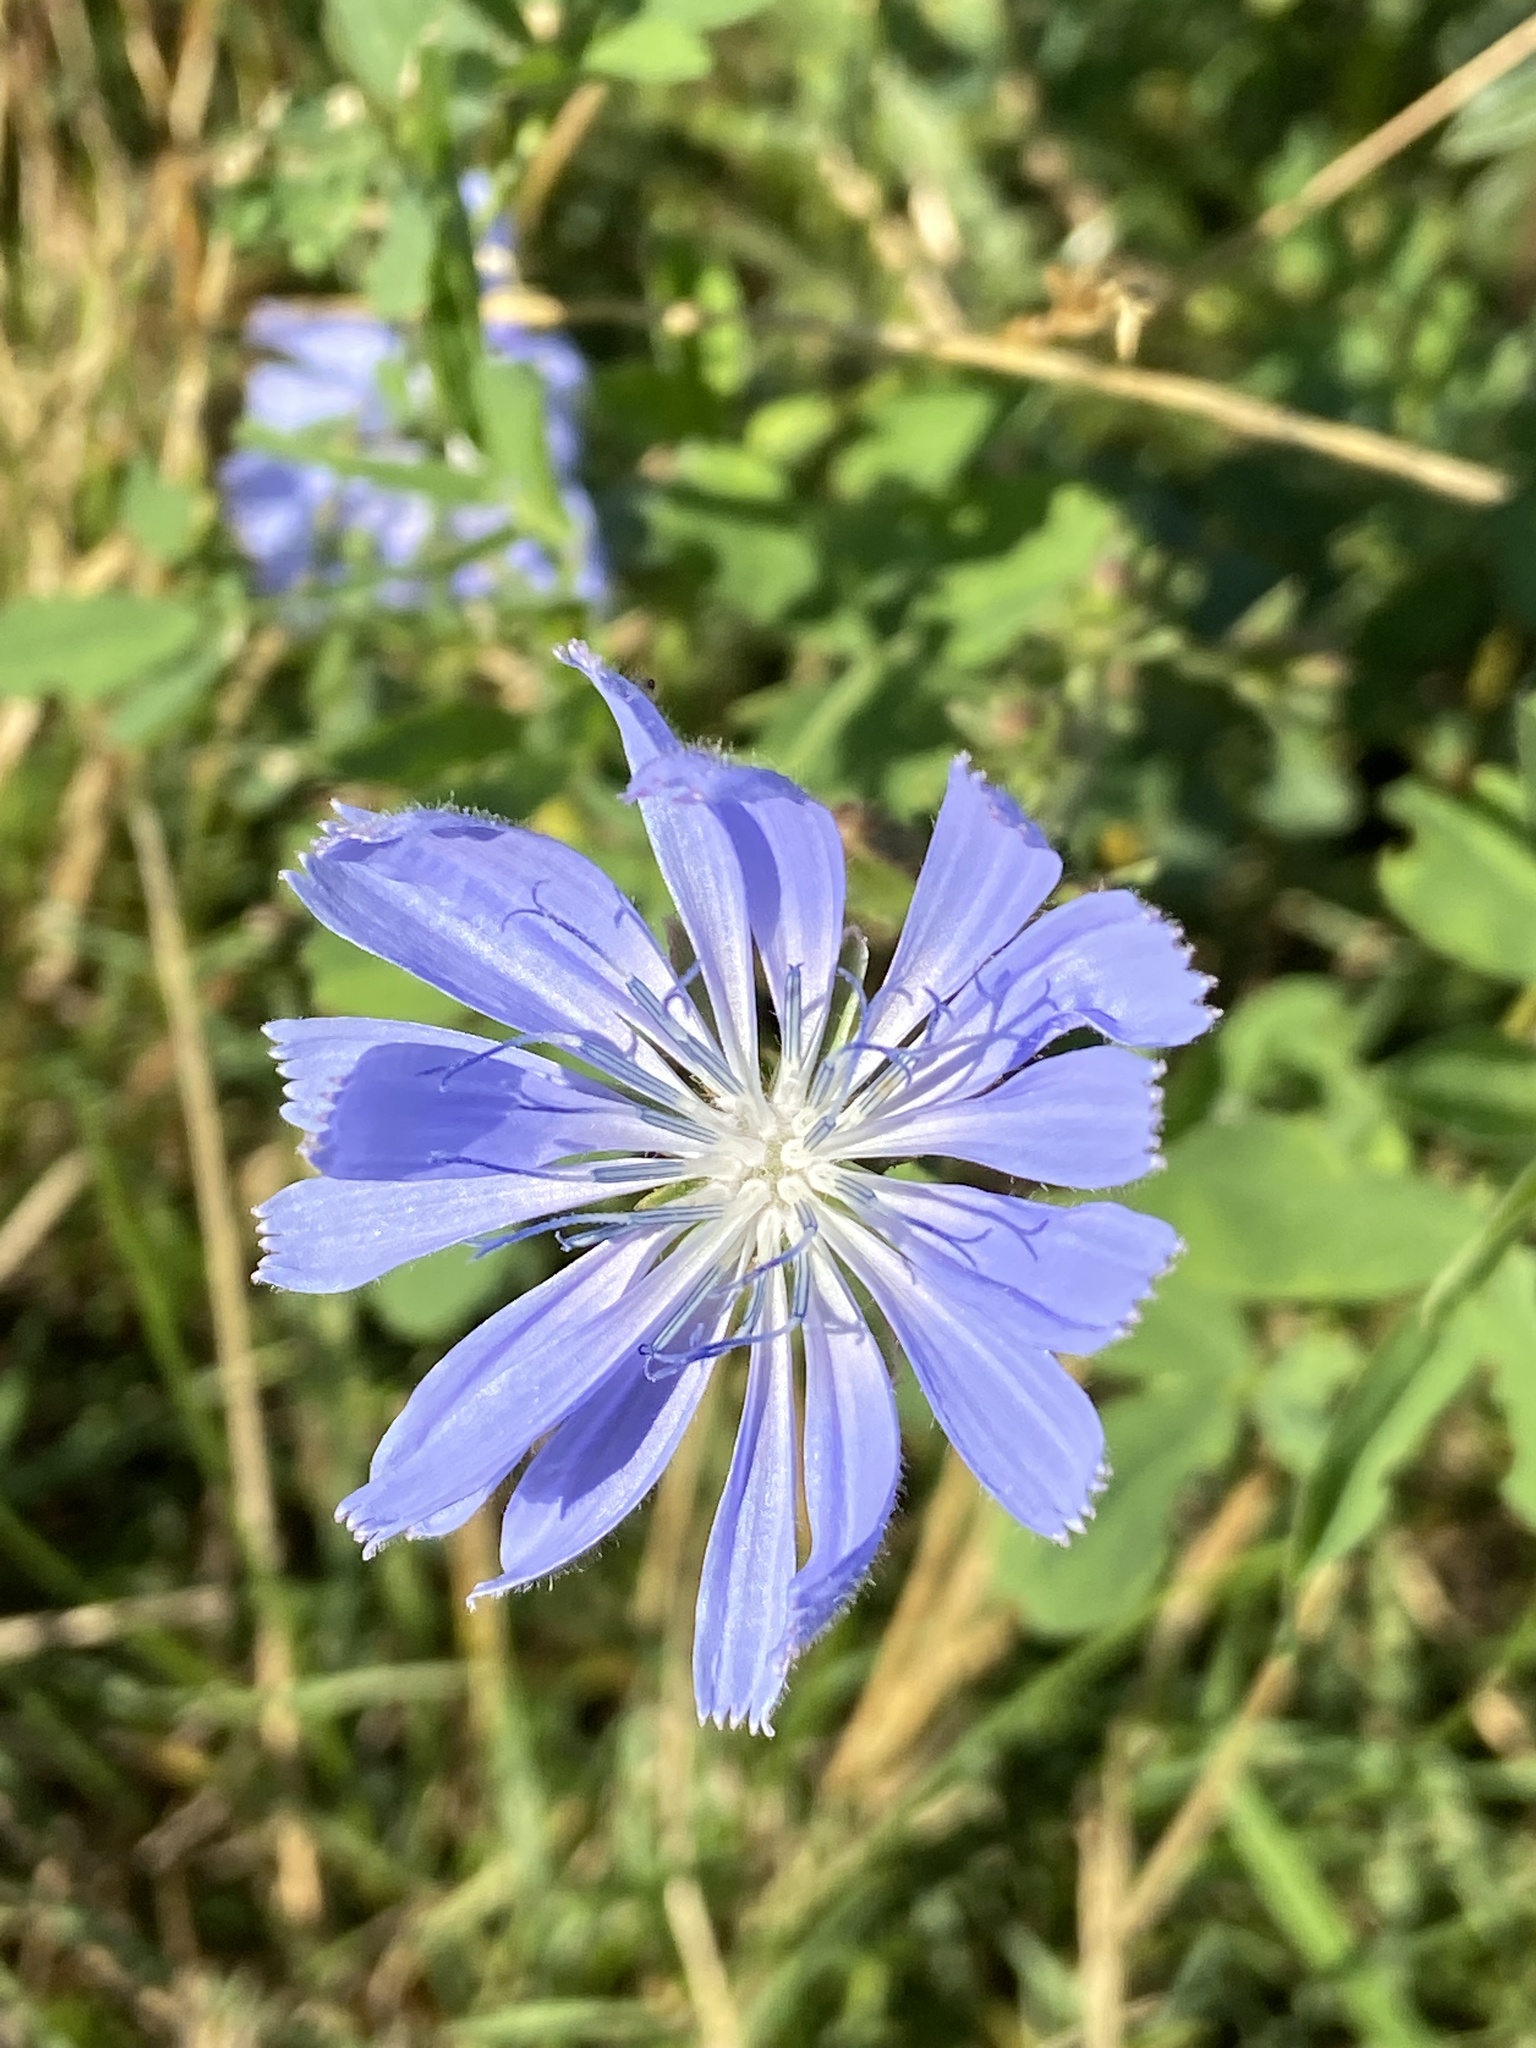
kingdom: Plantae
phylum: Tracheophyta
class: Magnoliopsida
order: Asterales
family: Asteraceae
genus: Cichorium
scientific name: Cichorium intybus
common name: Chicory
